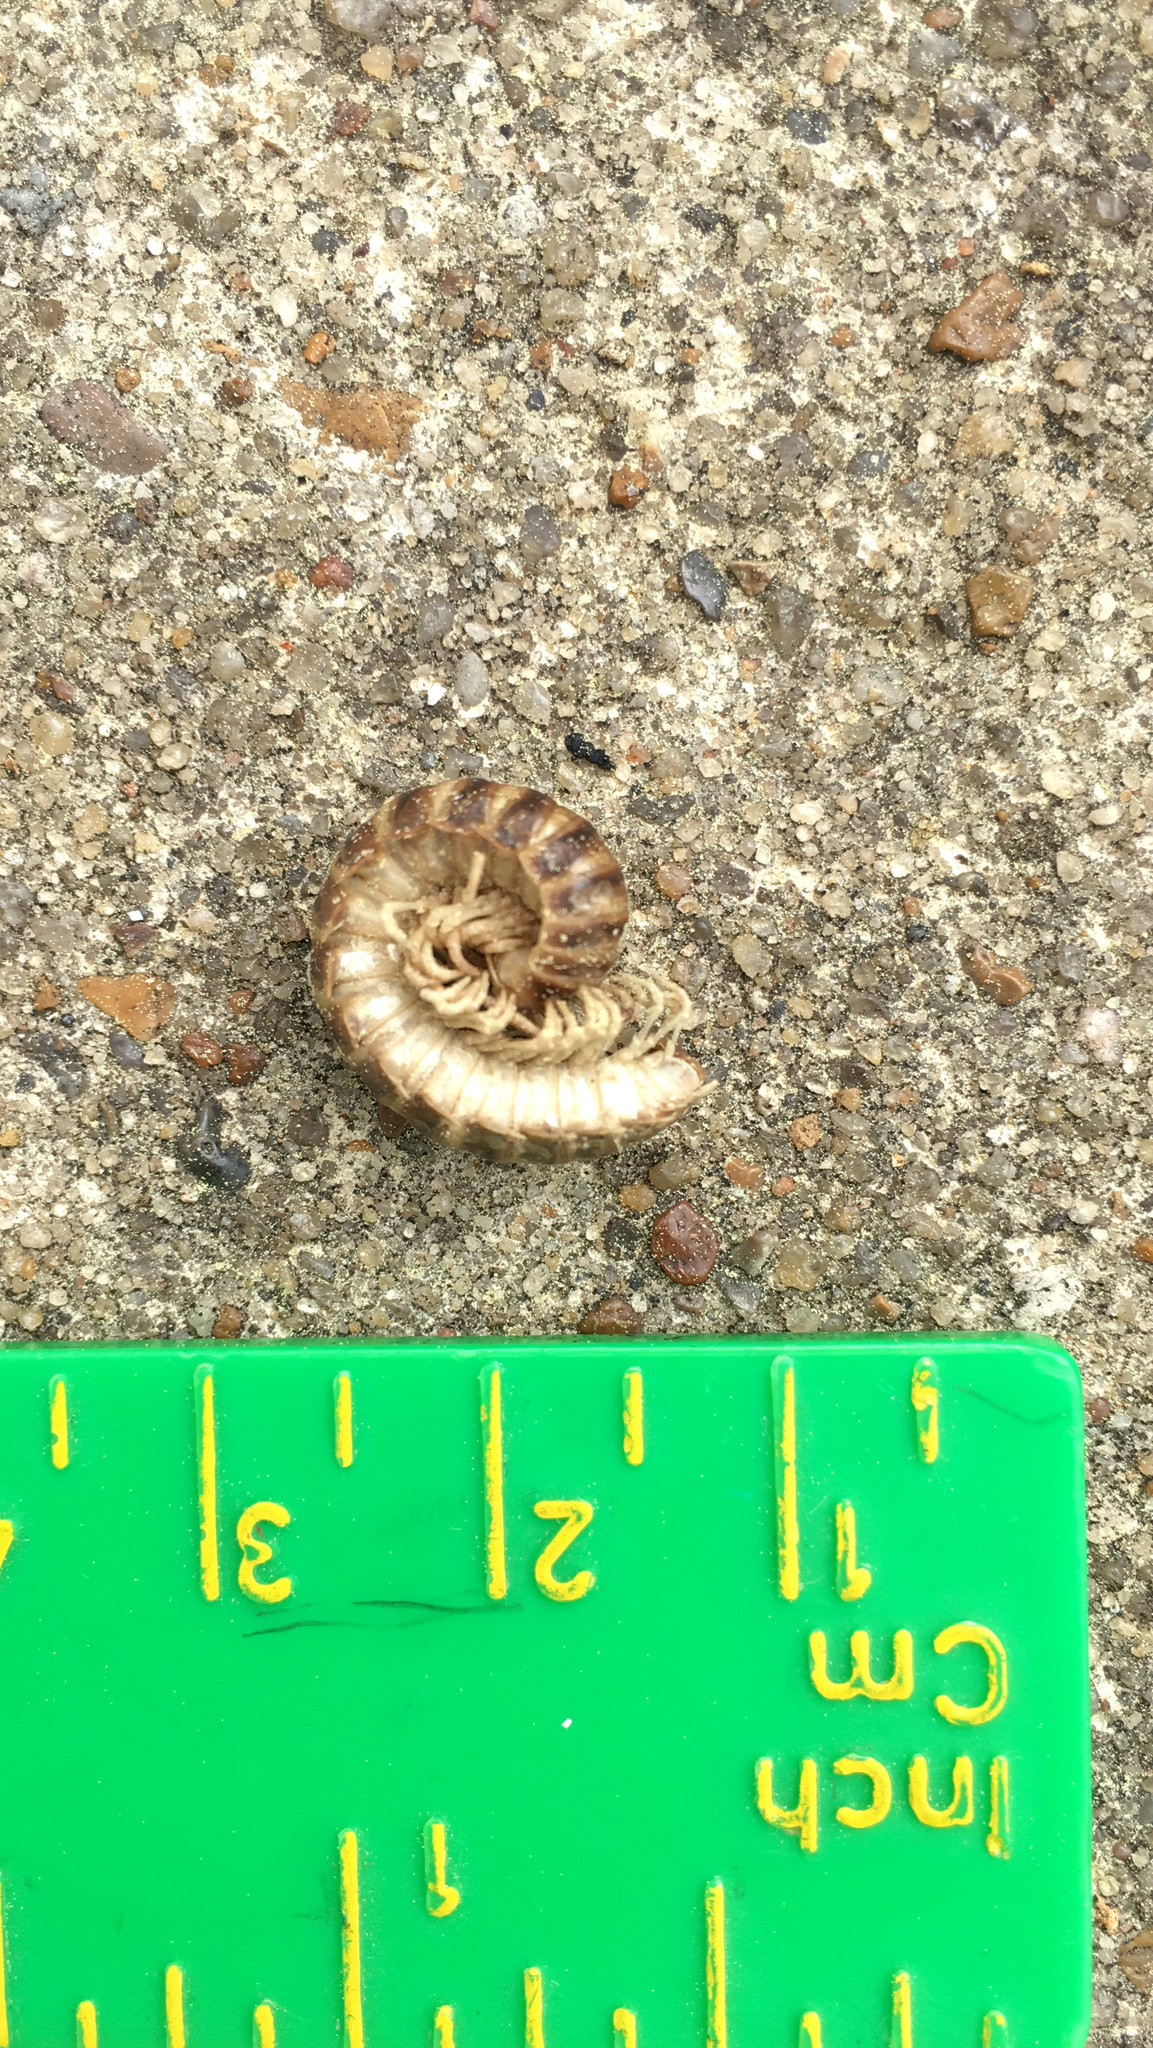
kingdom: Animalia
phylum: Arthropoda
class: Diplopoda
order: Polydesmida
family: Xystodesmidae
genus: Dicellarius
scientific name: Dicellarius lamprus
